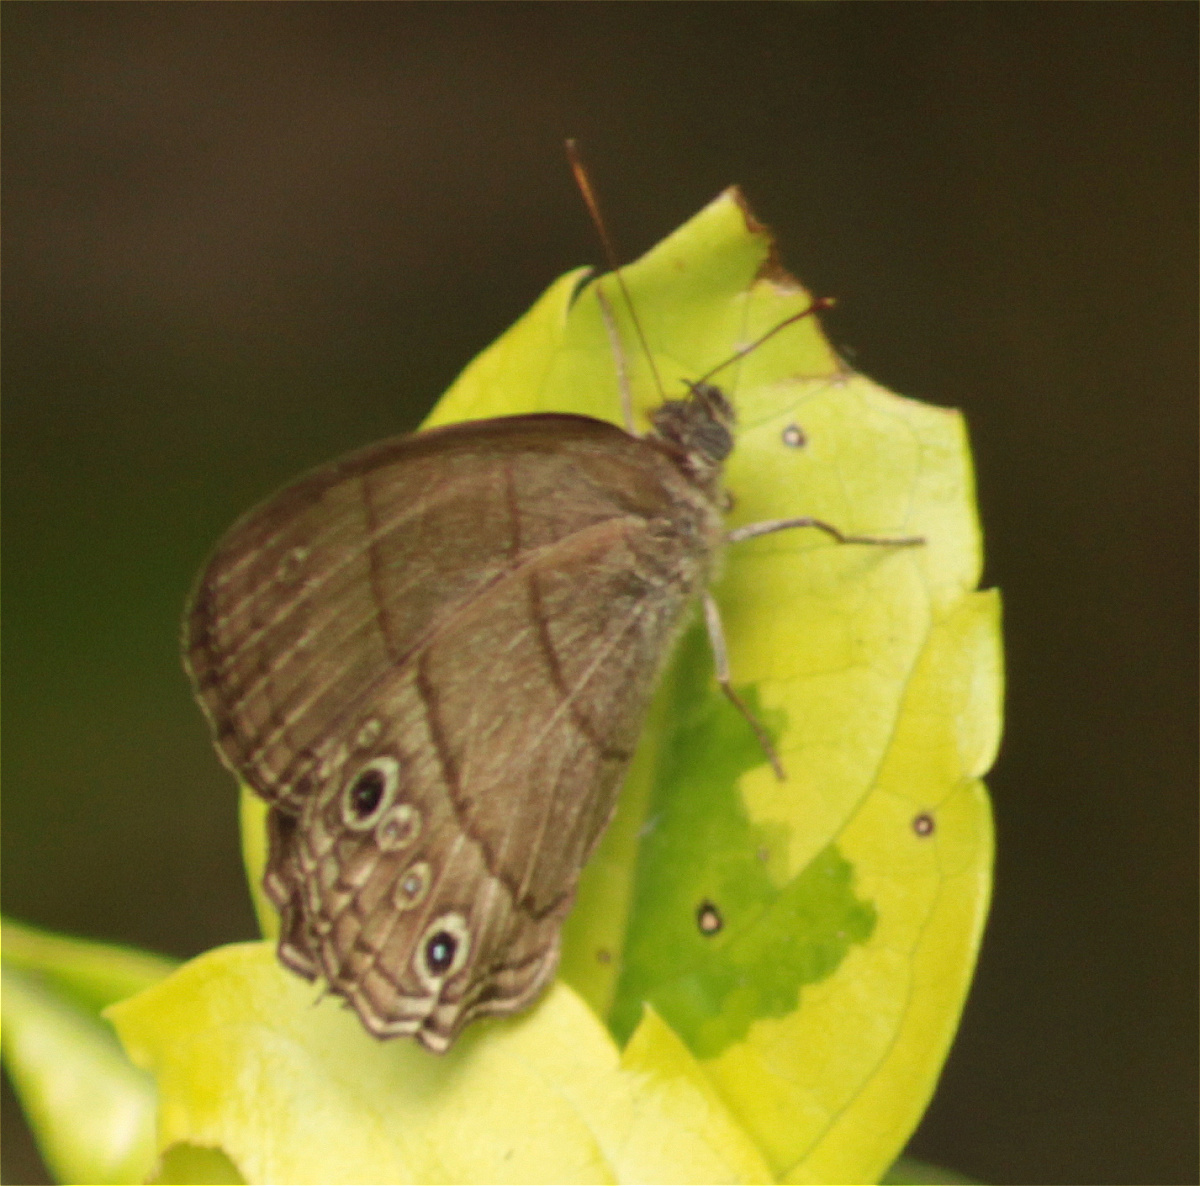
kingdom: Animalia
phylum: Arthropoda
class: Insecta
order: Lepidoptera
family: Nymphalidae
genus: Vareuptychia
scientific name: Vareuptychia similis
